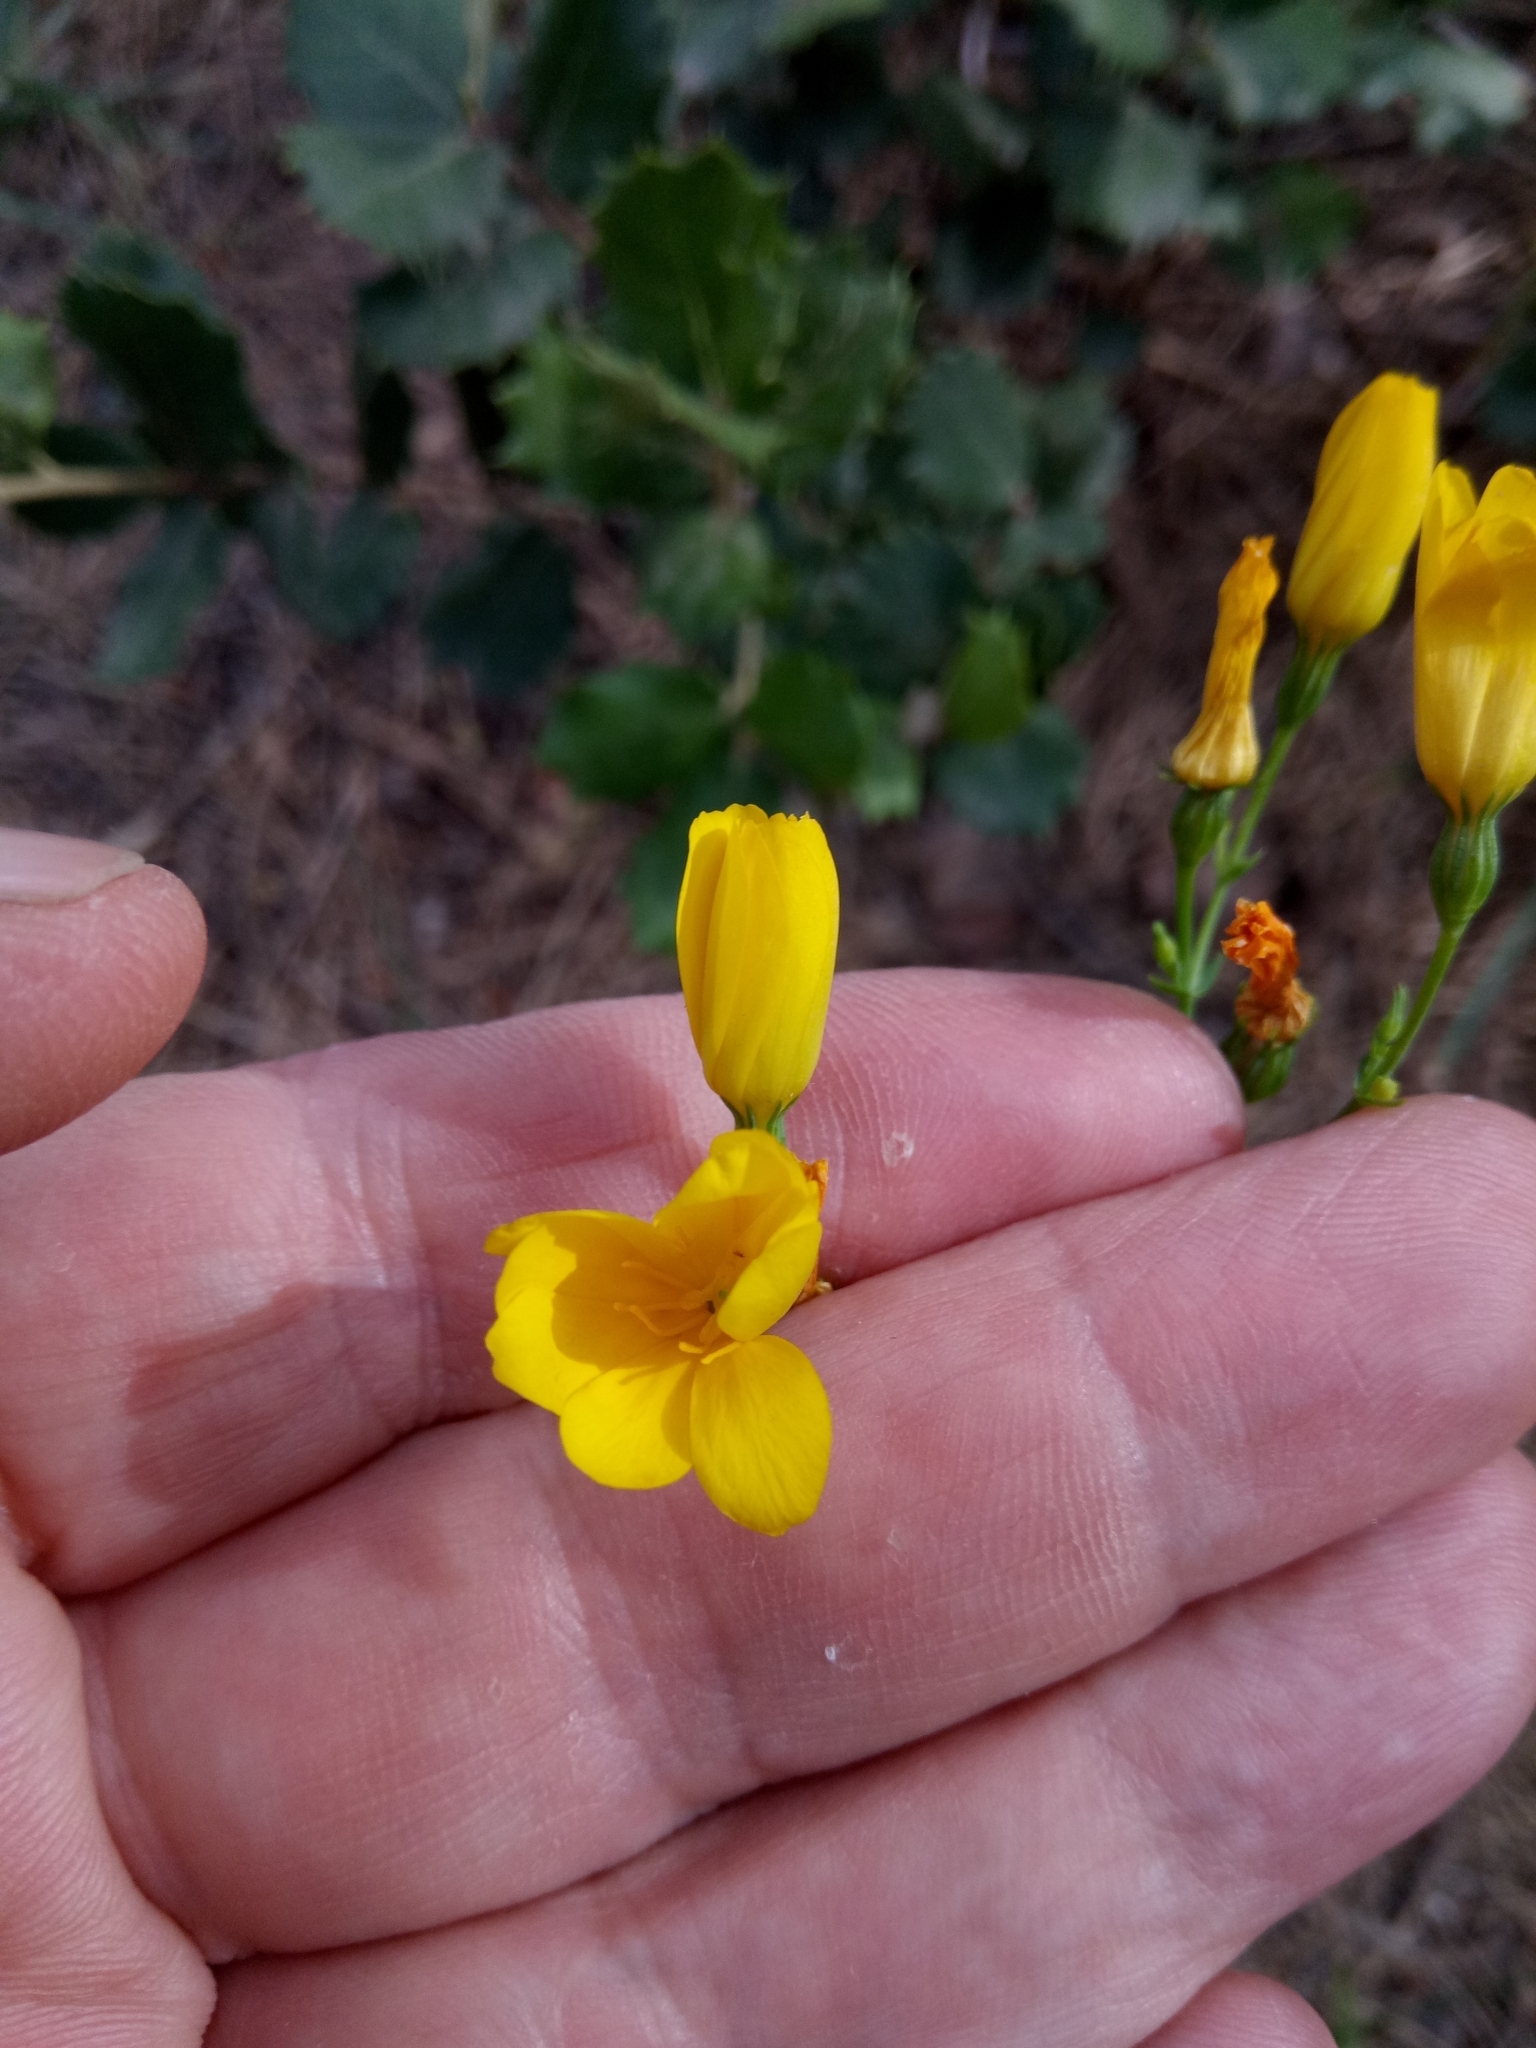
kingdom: Plantae
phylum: Tracheophyta
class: Magnoliopsida
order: Gentianales
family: Gentianaceae
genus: Blackstonia
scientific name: Blackstonia grandiflora
